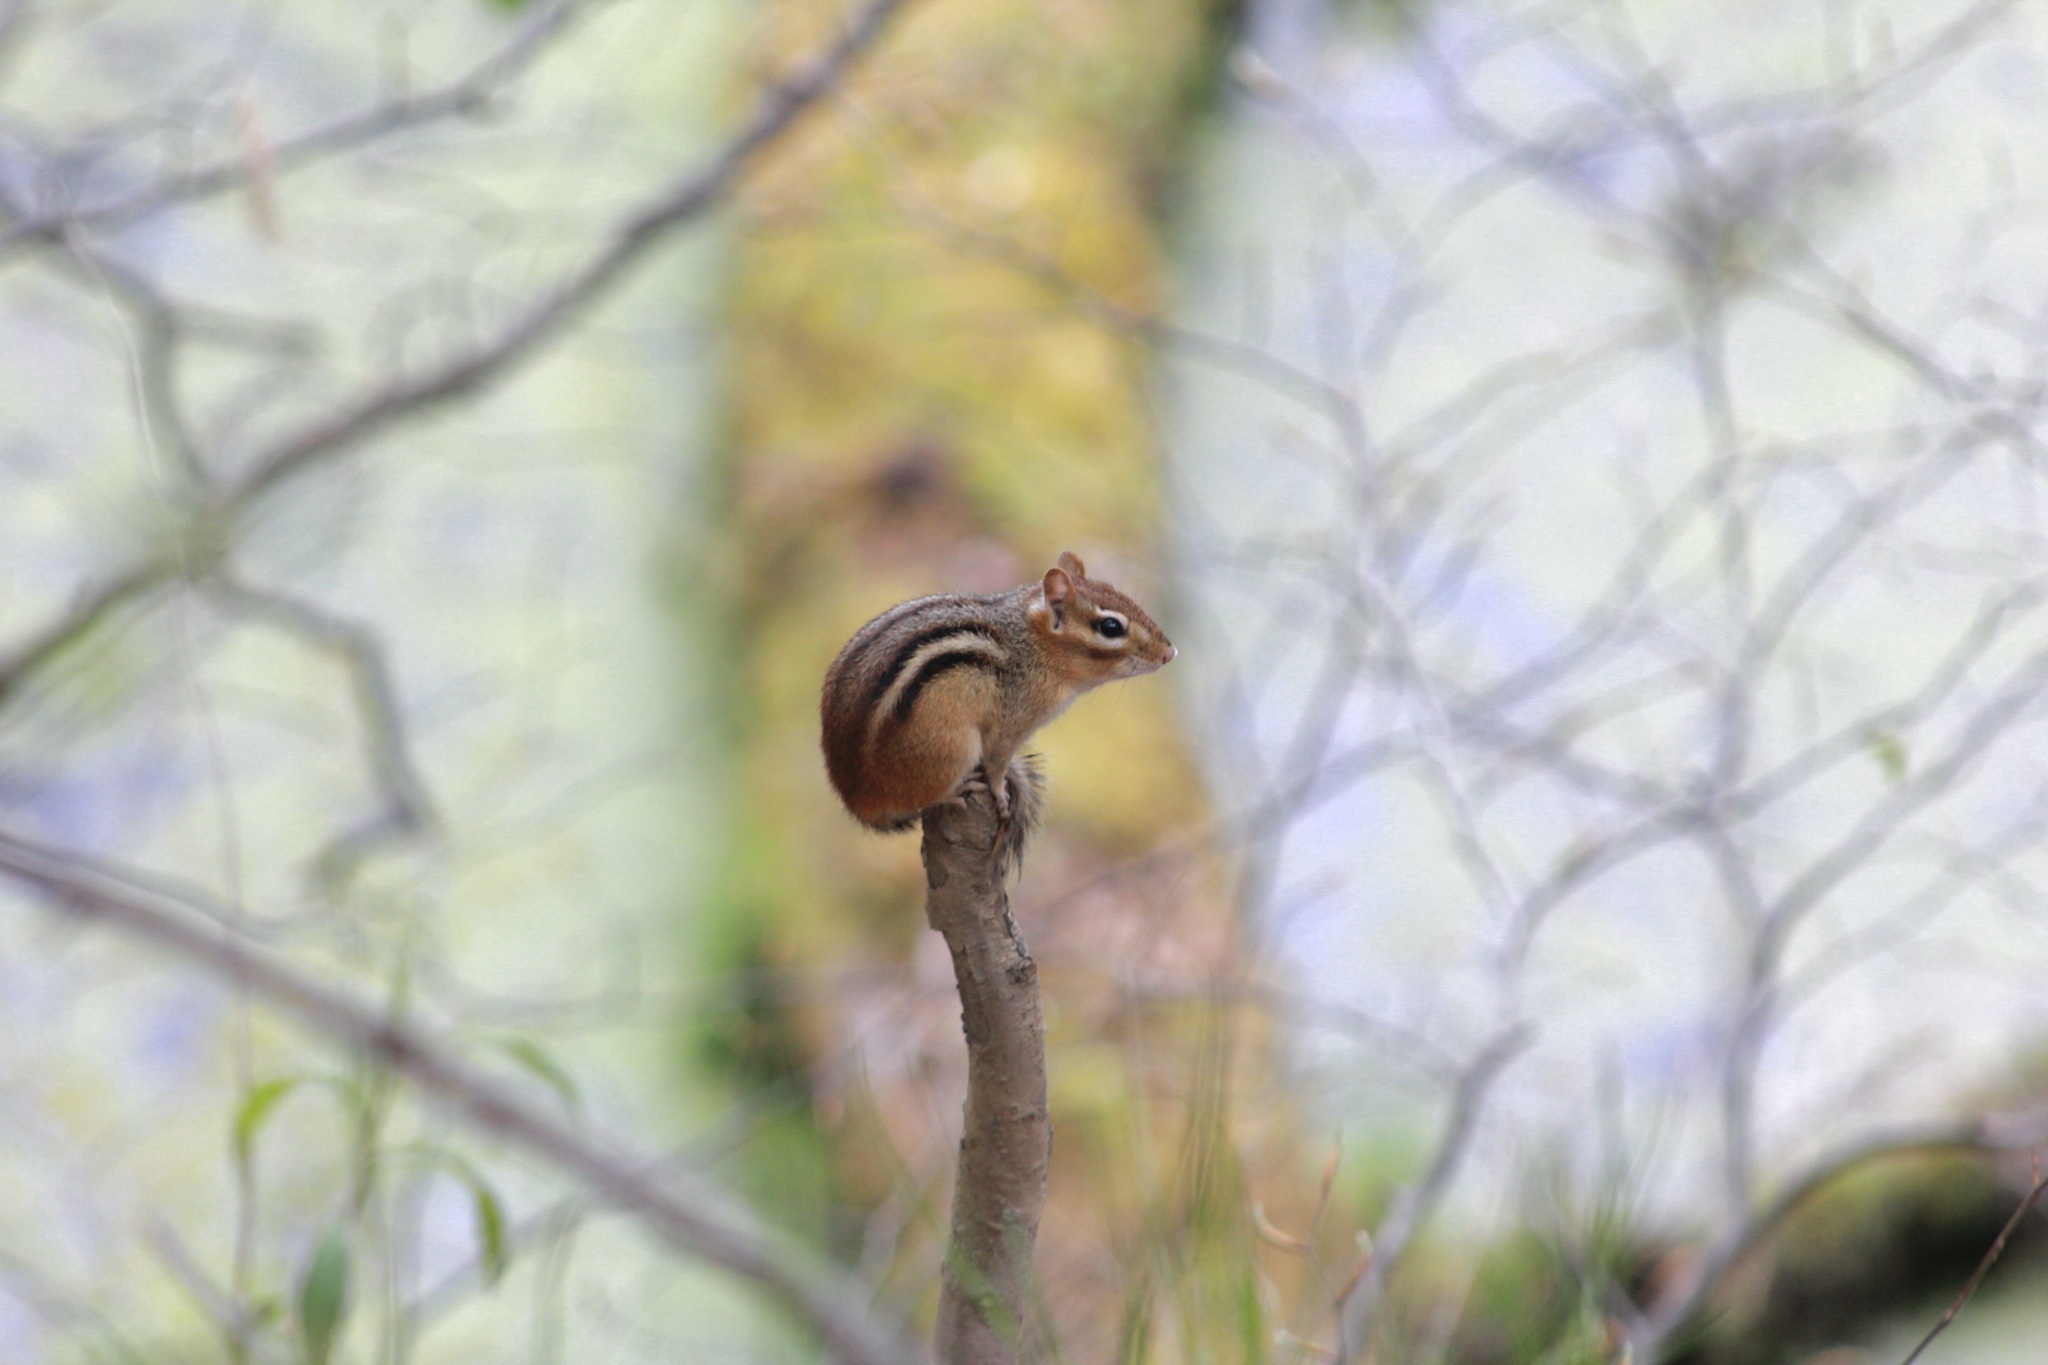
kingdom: Animalia
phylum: Chordata
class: Mammalia
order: Rodentia
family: Sciuridae
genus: Tamias
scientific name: Tamias striatus
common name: Eastern chipmunk
